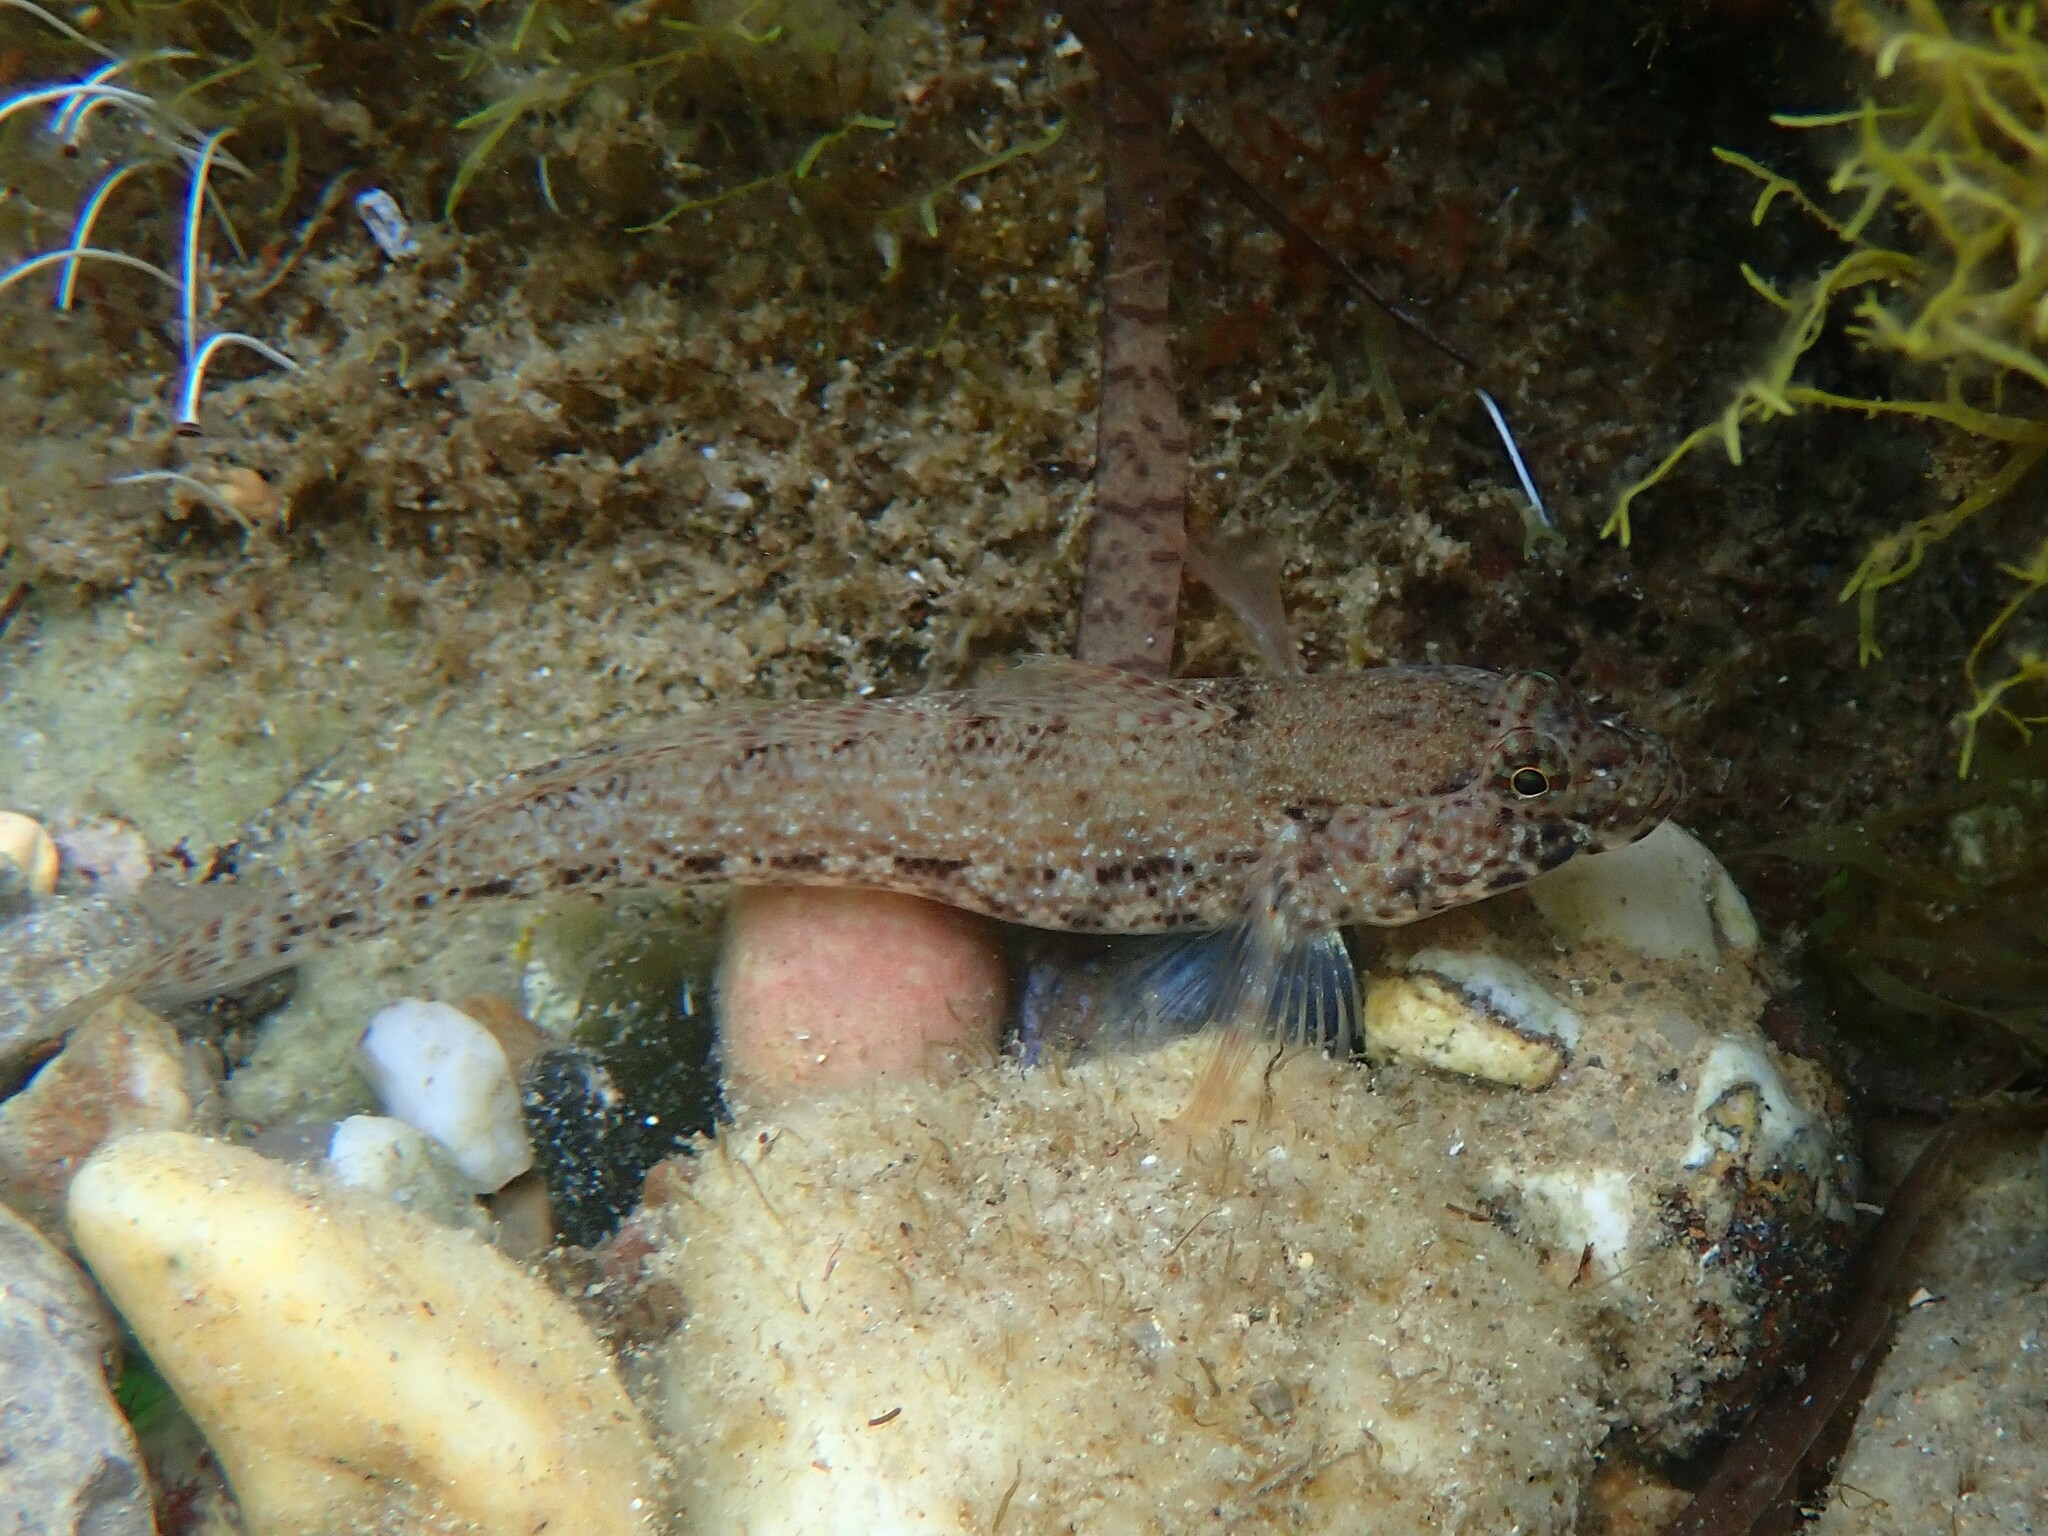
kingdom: Animalia
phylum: Chordata
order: Perciformes
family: Gobiidae
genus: Gobius
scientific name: Gobius incognitus
